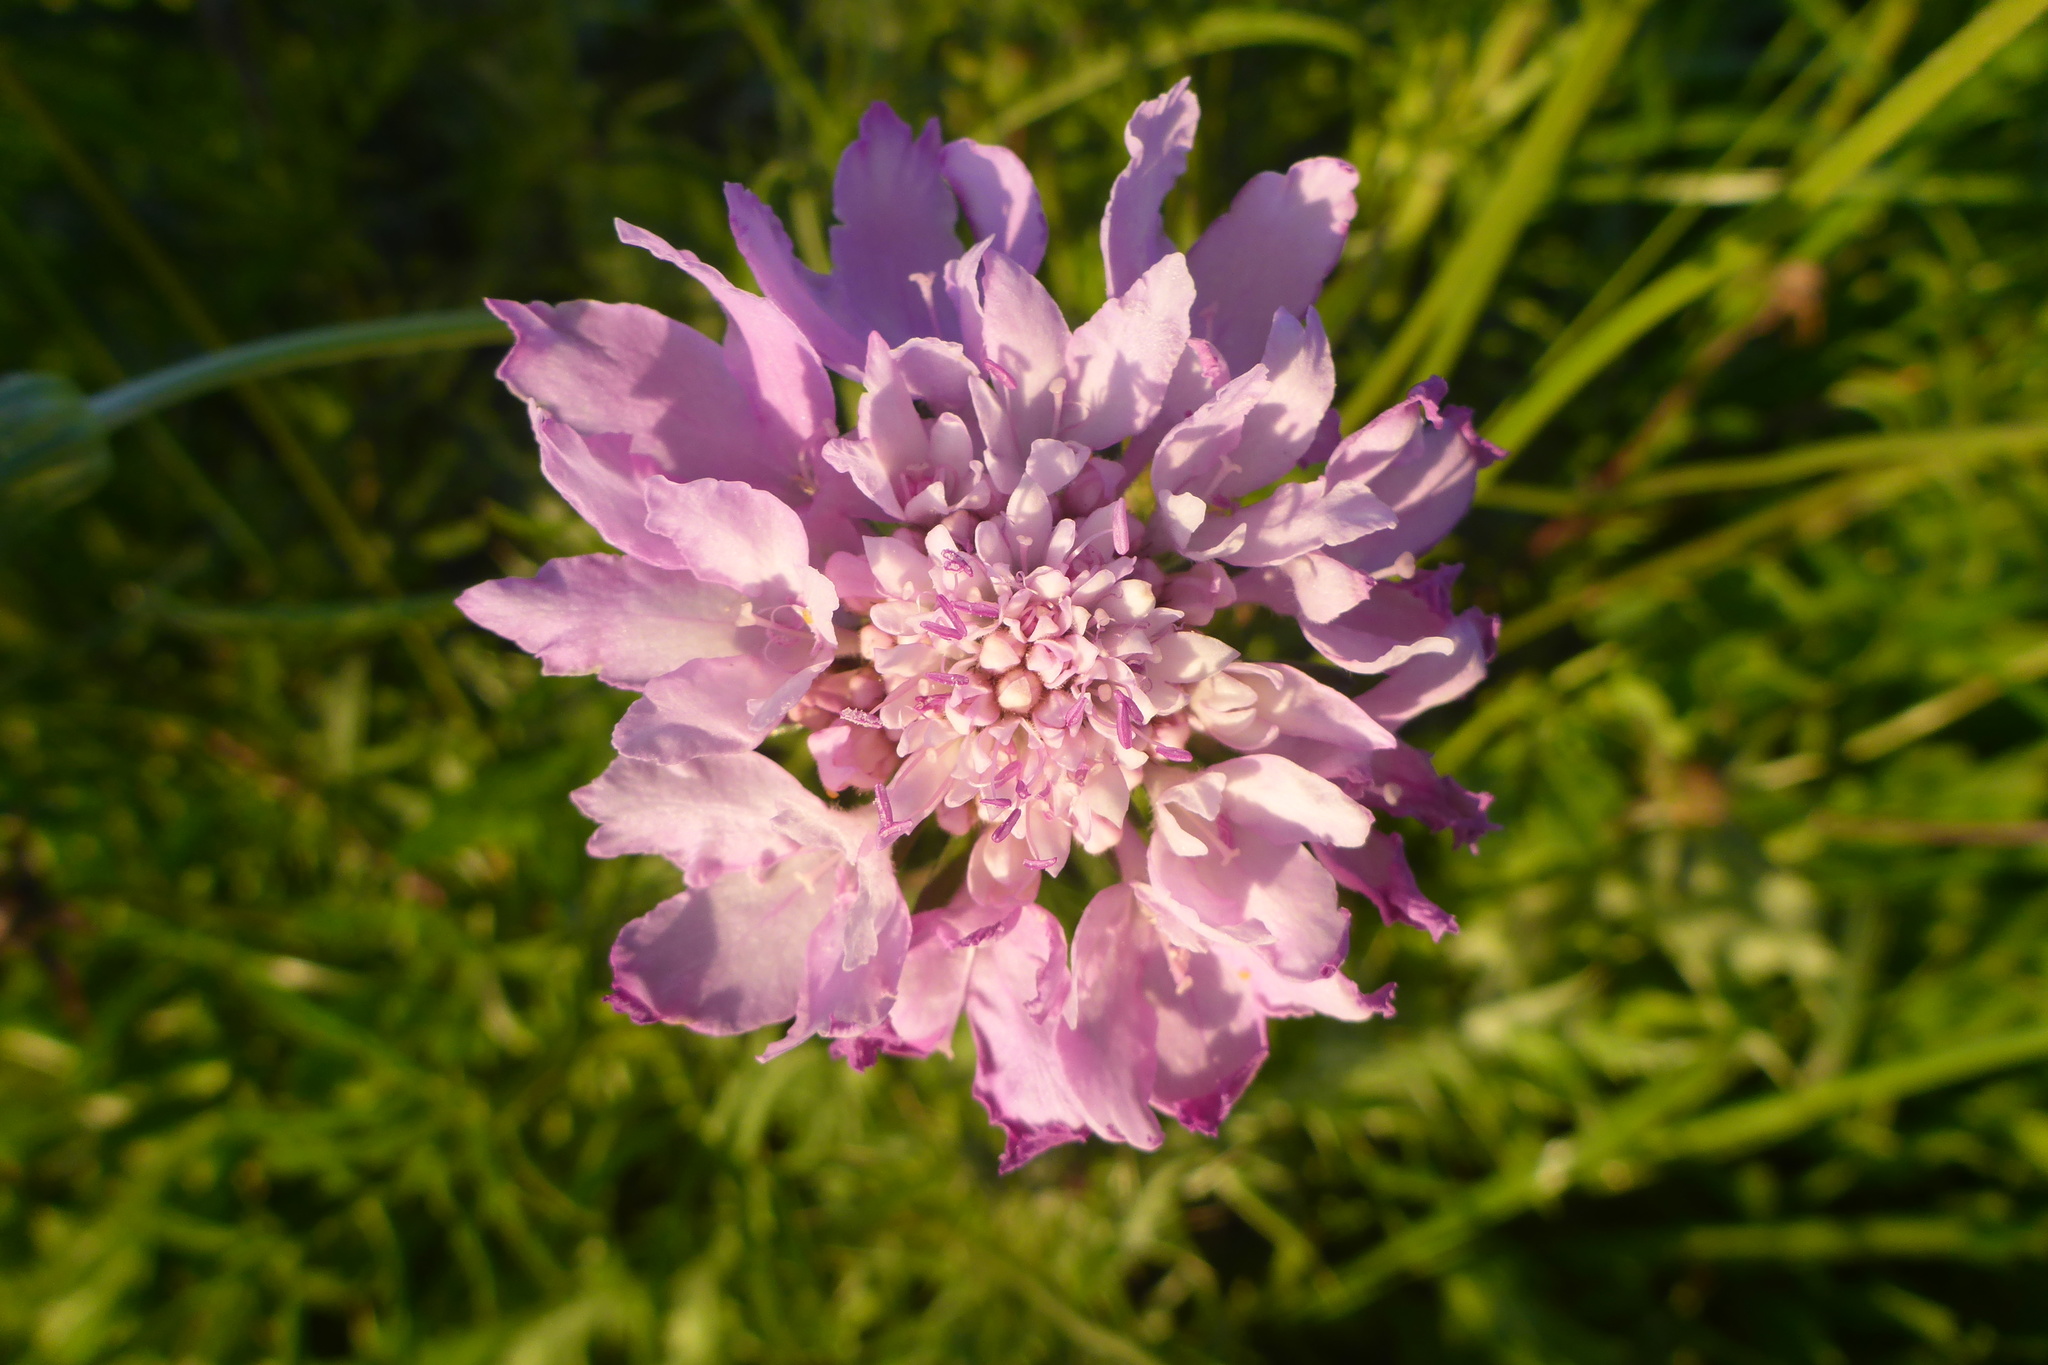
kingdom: Plantae
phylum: Tracheophyta
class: Magnoliopsida
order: Dipsacales
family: Caprifoliaceae
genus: Sixalix
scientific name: Sixalix atropurpurea
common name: Sweet scabious
